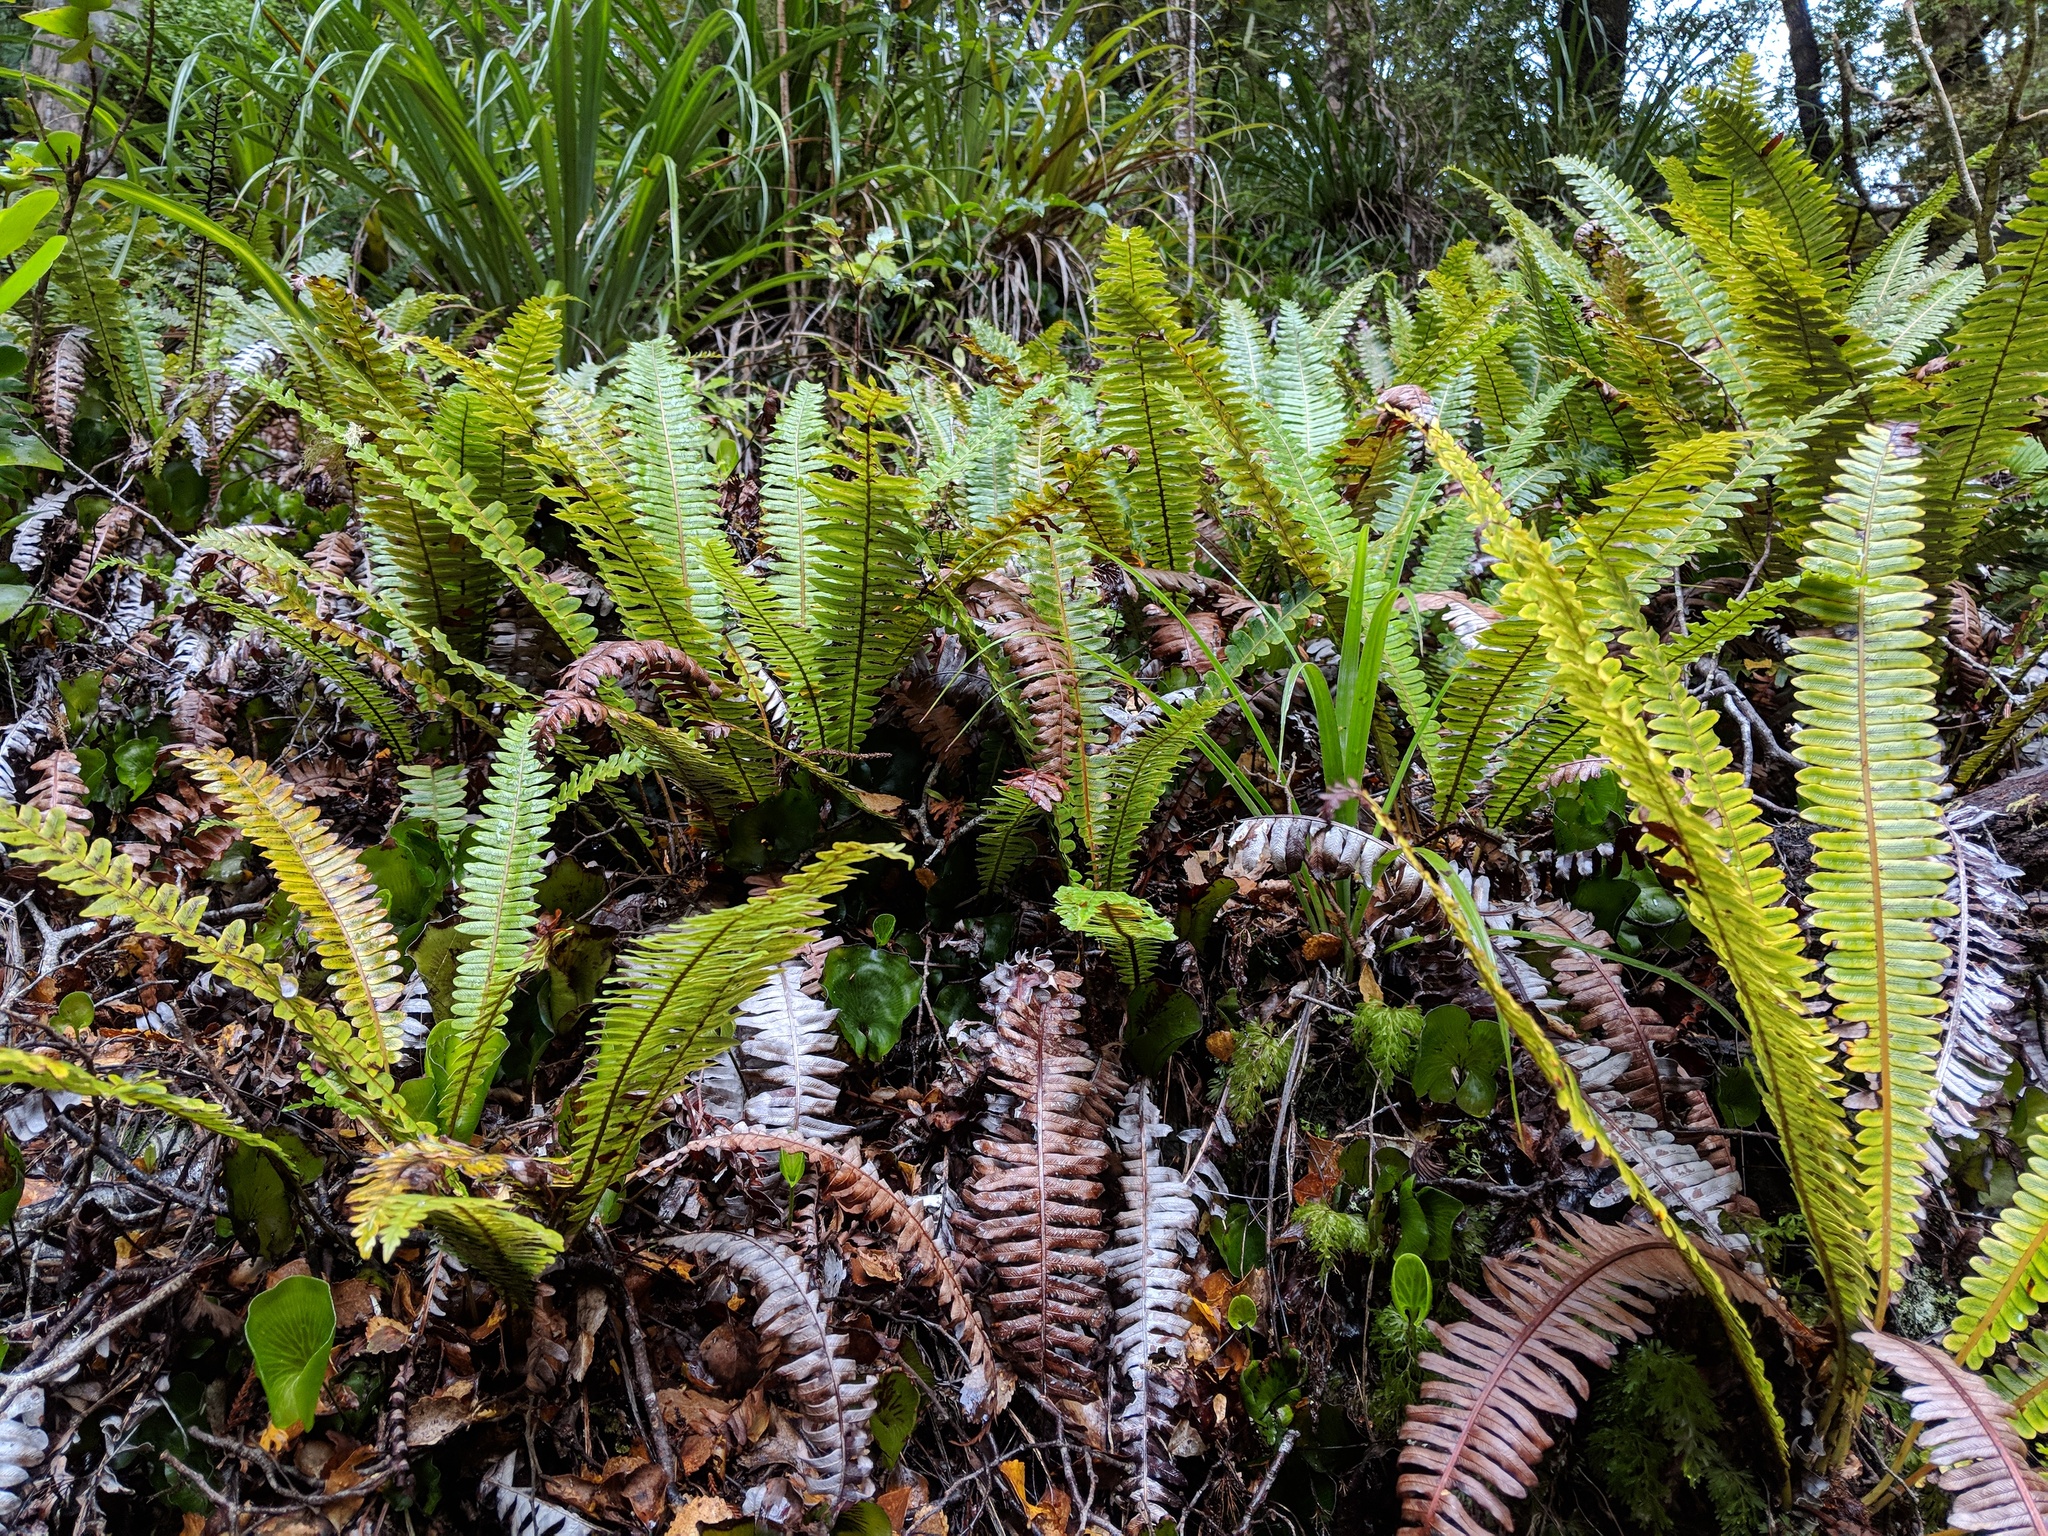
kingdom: Plantae
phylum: Tracheophyta
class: Polypodiopsida
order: Polypodiales
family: Blechnaceae
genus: Lomaria
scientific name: Lomaria discolor
